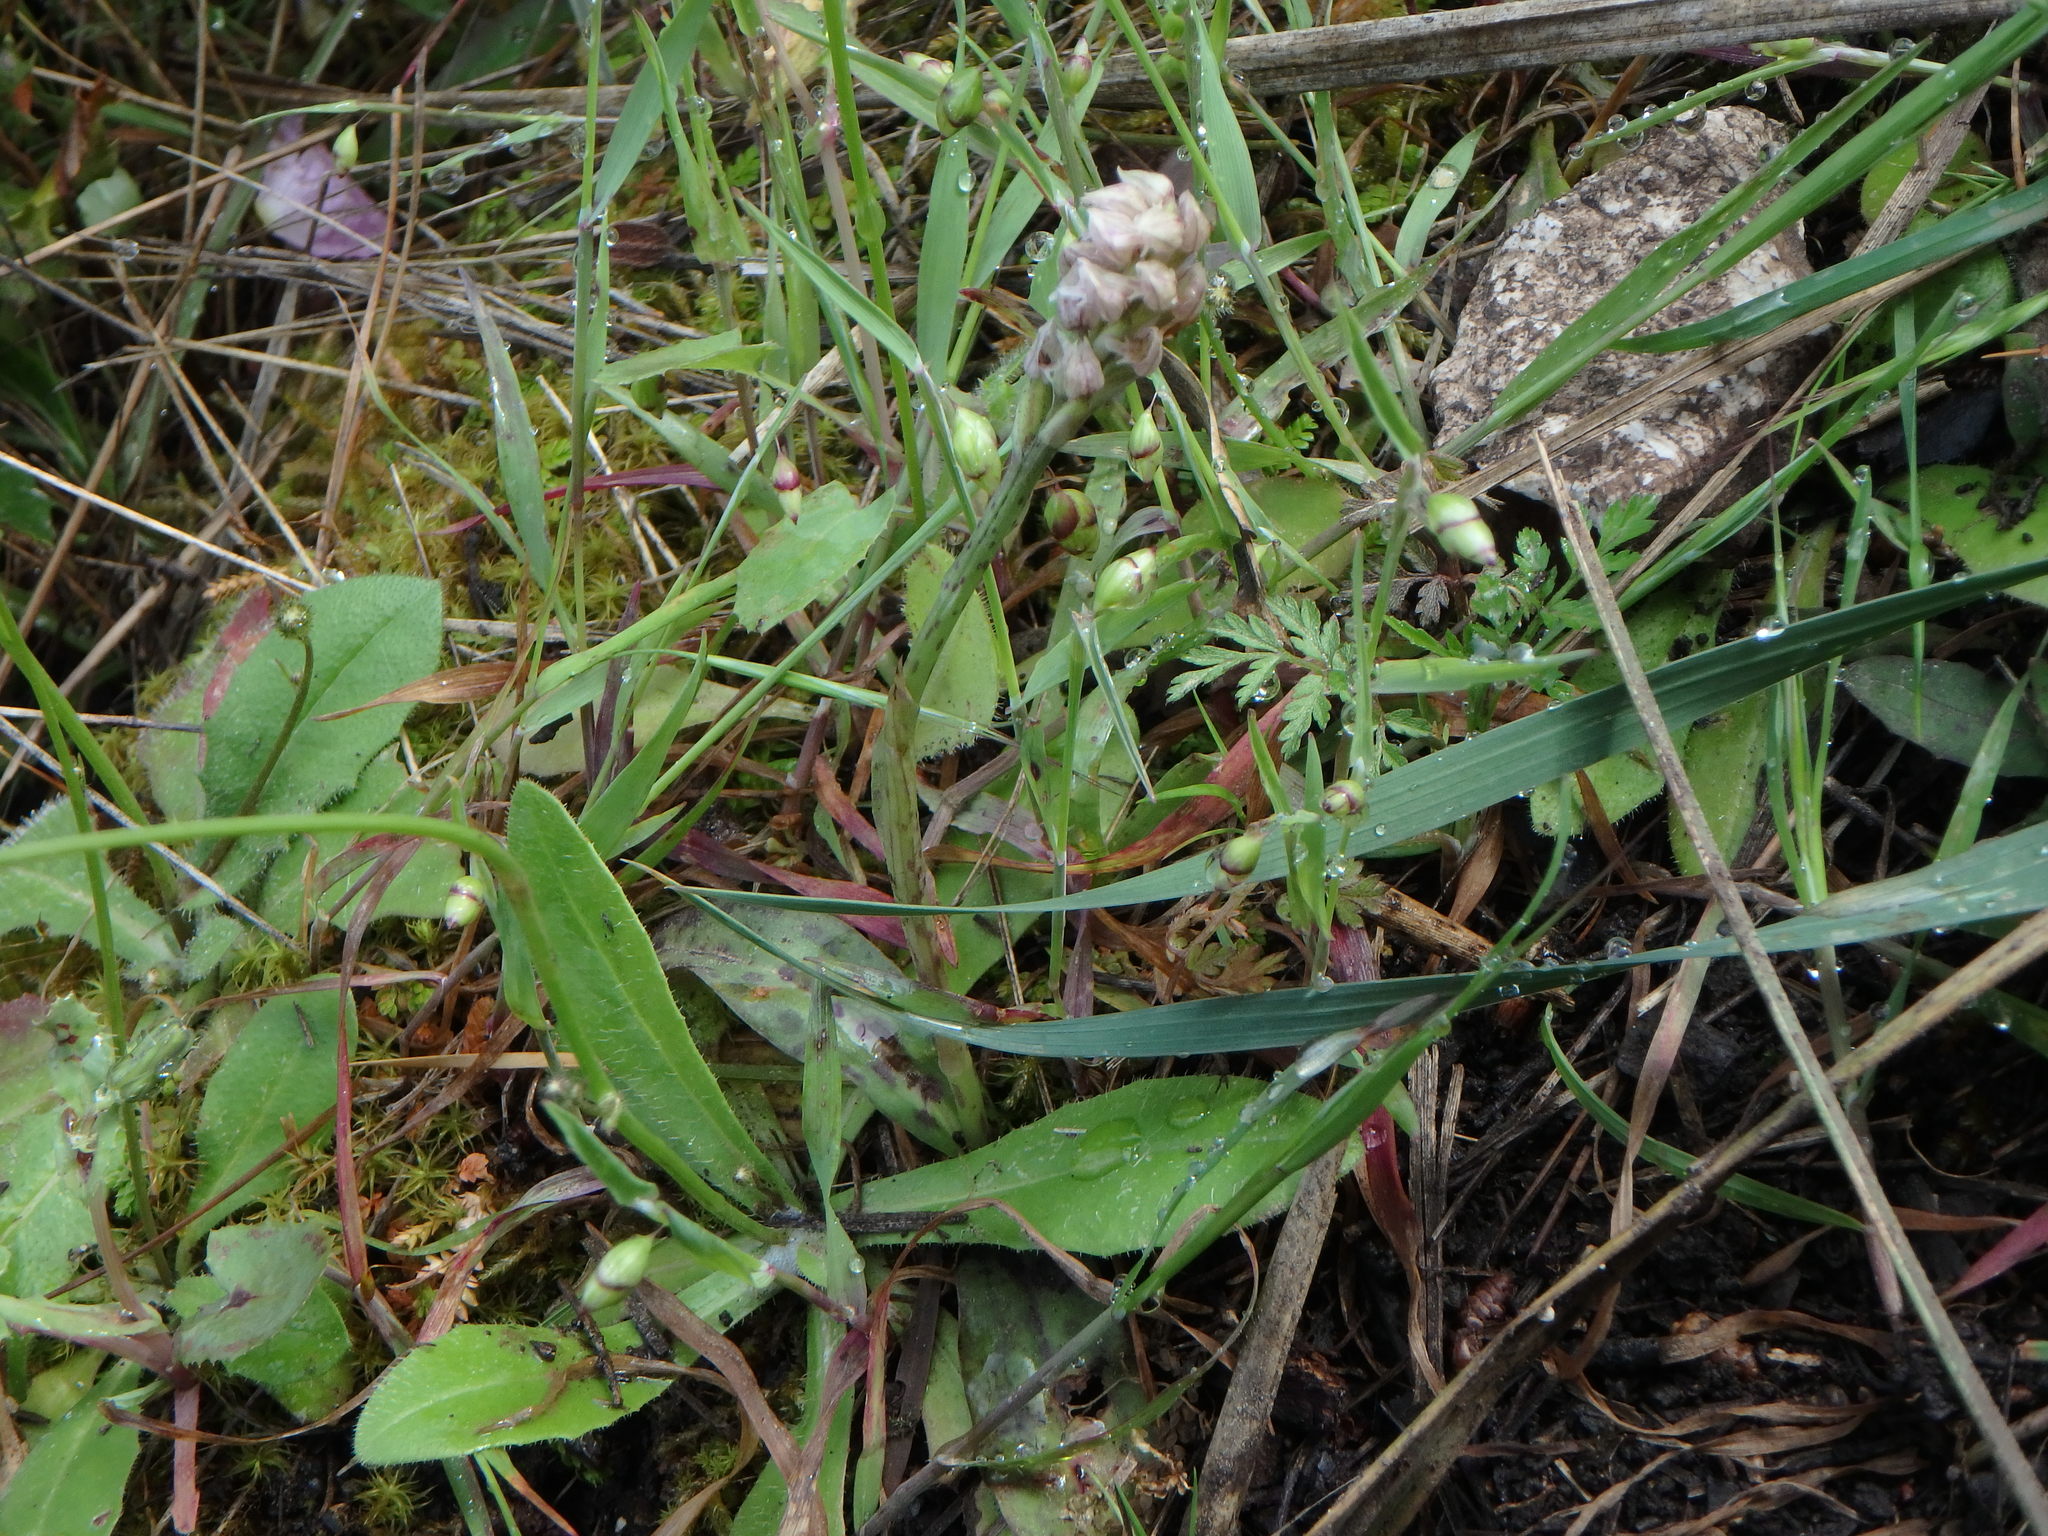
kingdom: Plantae
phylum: Tracheophyta
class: Liliopsida
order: Asparagales
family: Orchidaceae
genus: Neotinea
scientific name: Neotinea maculata
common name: Dense-flowered orchid
